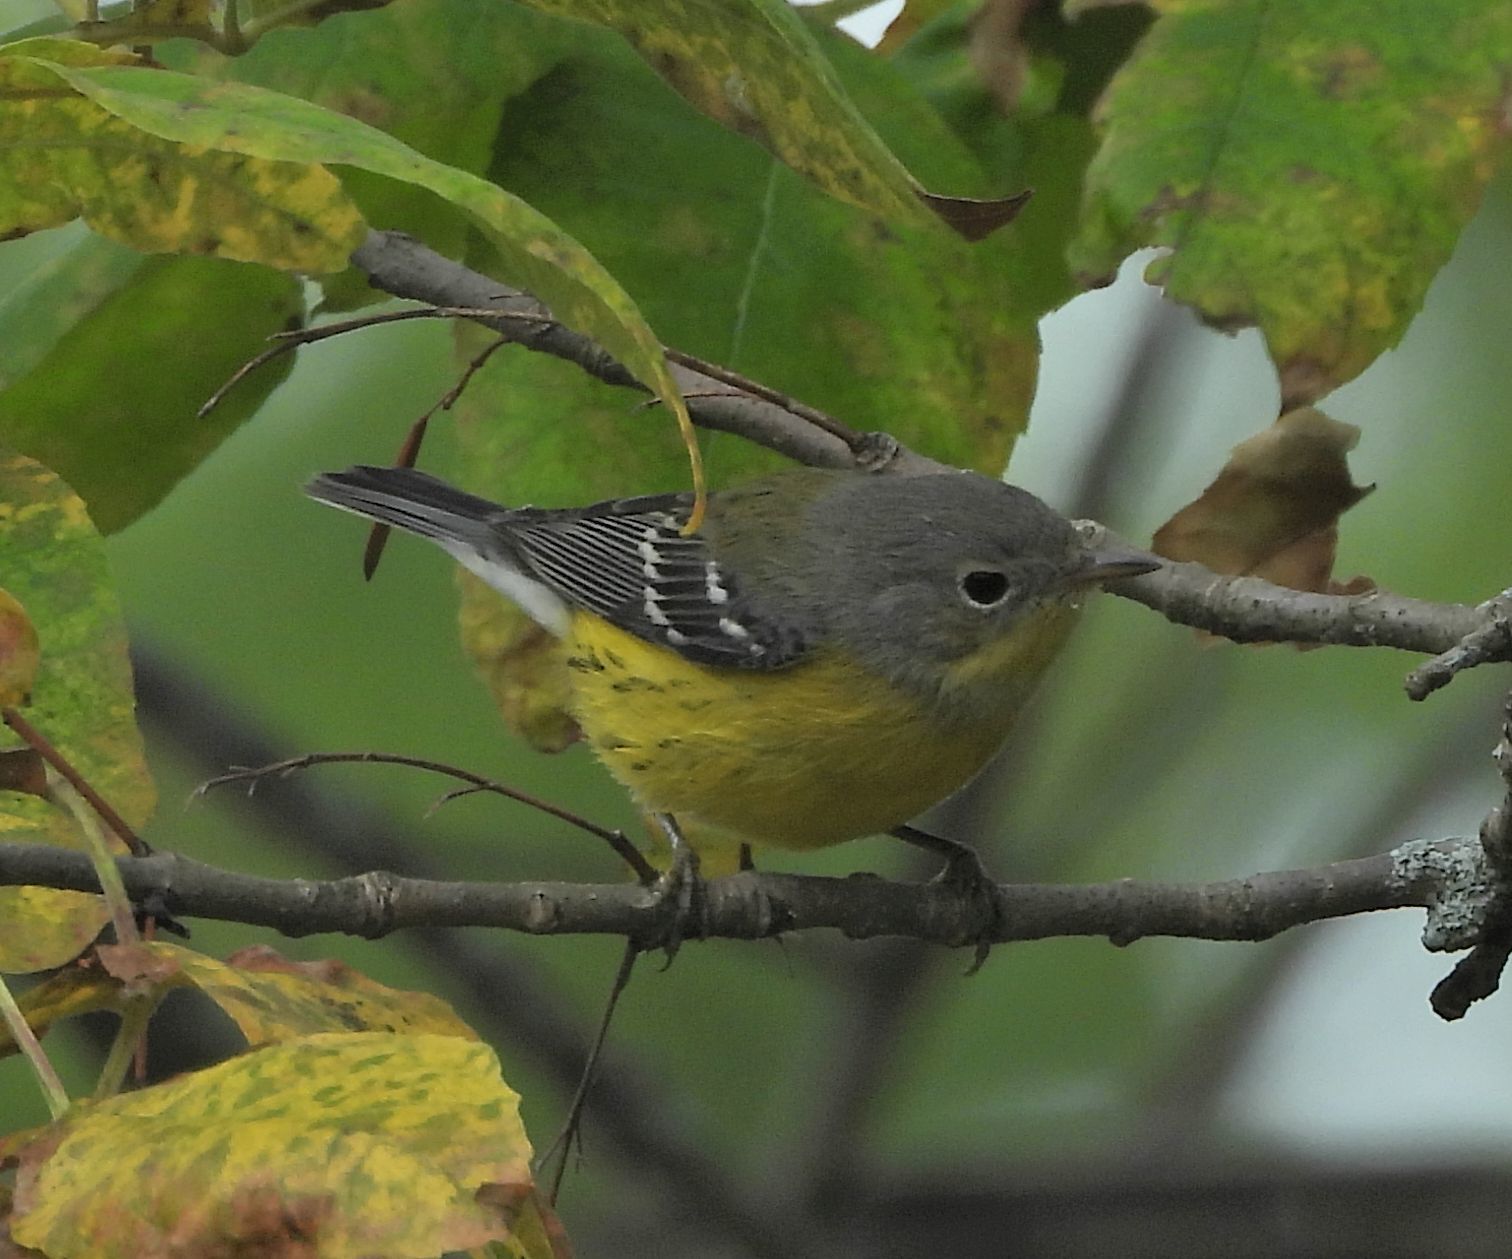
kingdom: Animalia
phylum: Chordata
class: Aves
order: Passeriformes
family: Parulidae
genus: Setophaga
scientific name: Setophaga magnolia
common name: Magnolia warbler
